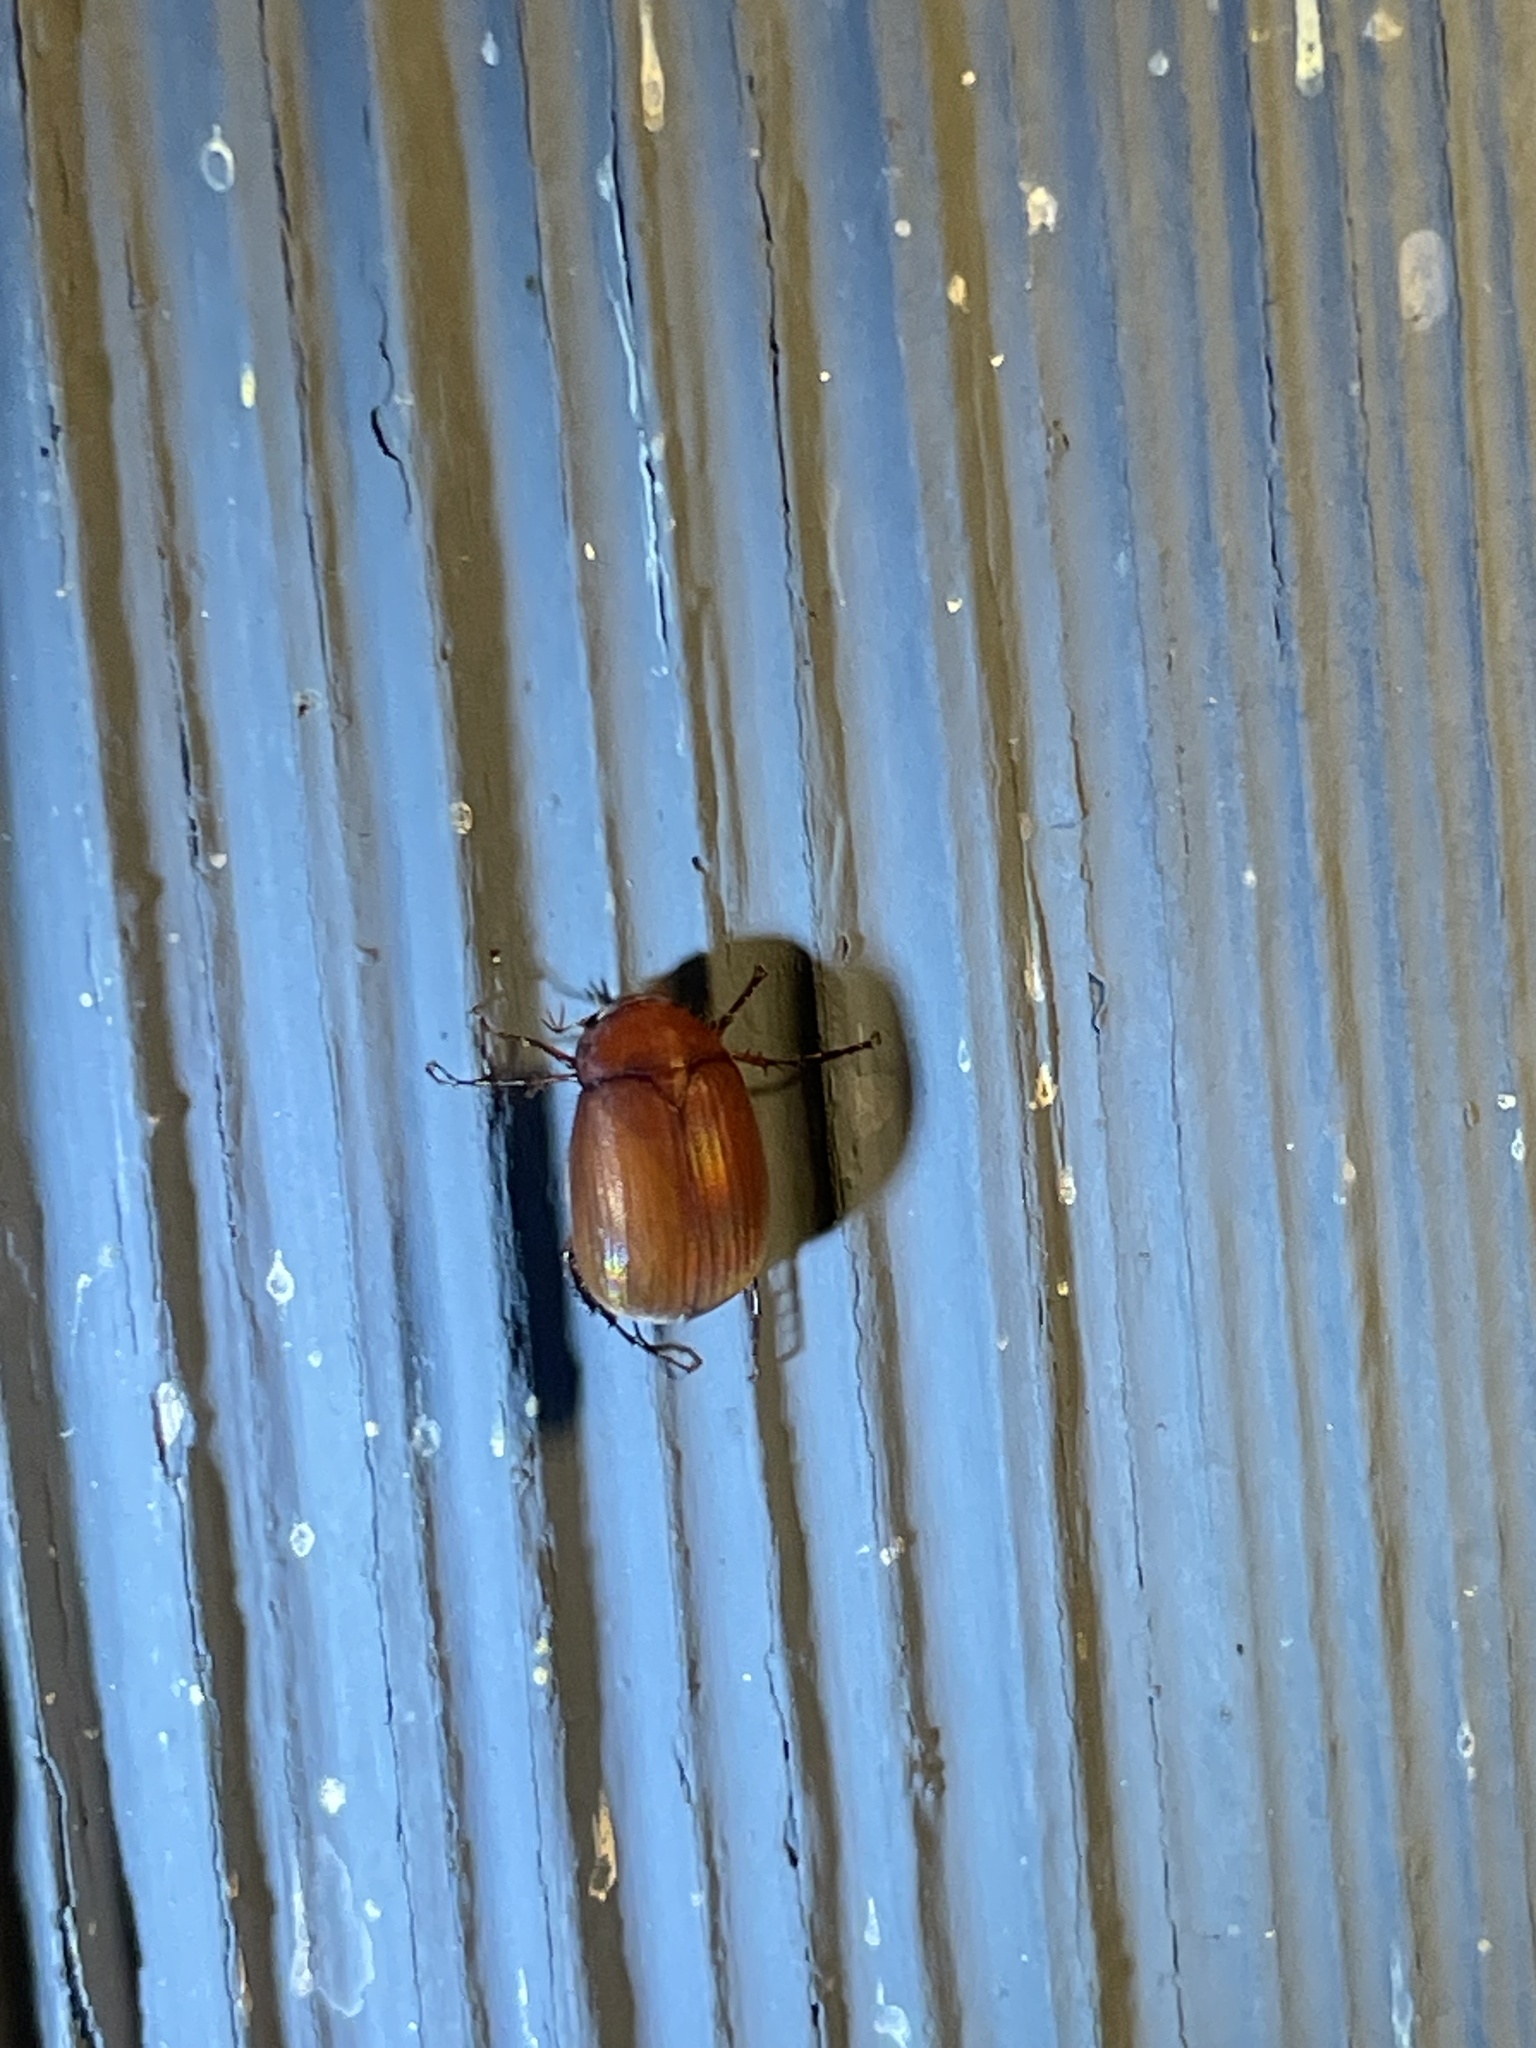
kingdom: Animalia
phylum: Arthropoda
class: Insecta
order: Coleoptera
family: Scarabaeidae
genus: Maladera
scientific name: Maladera formosae
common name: Asiatic garden beetle
